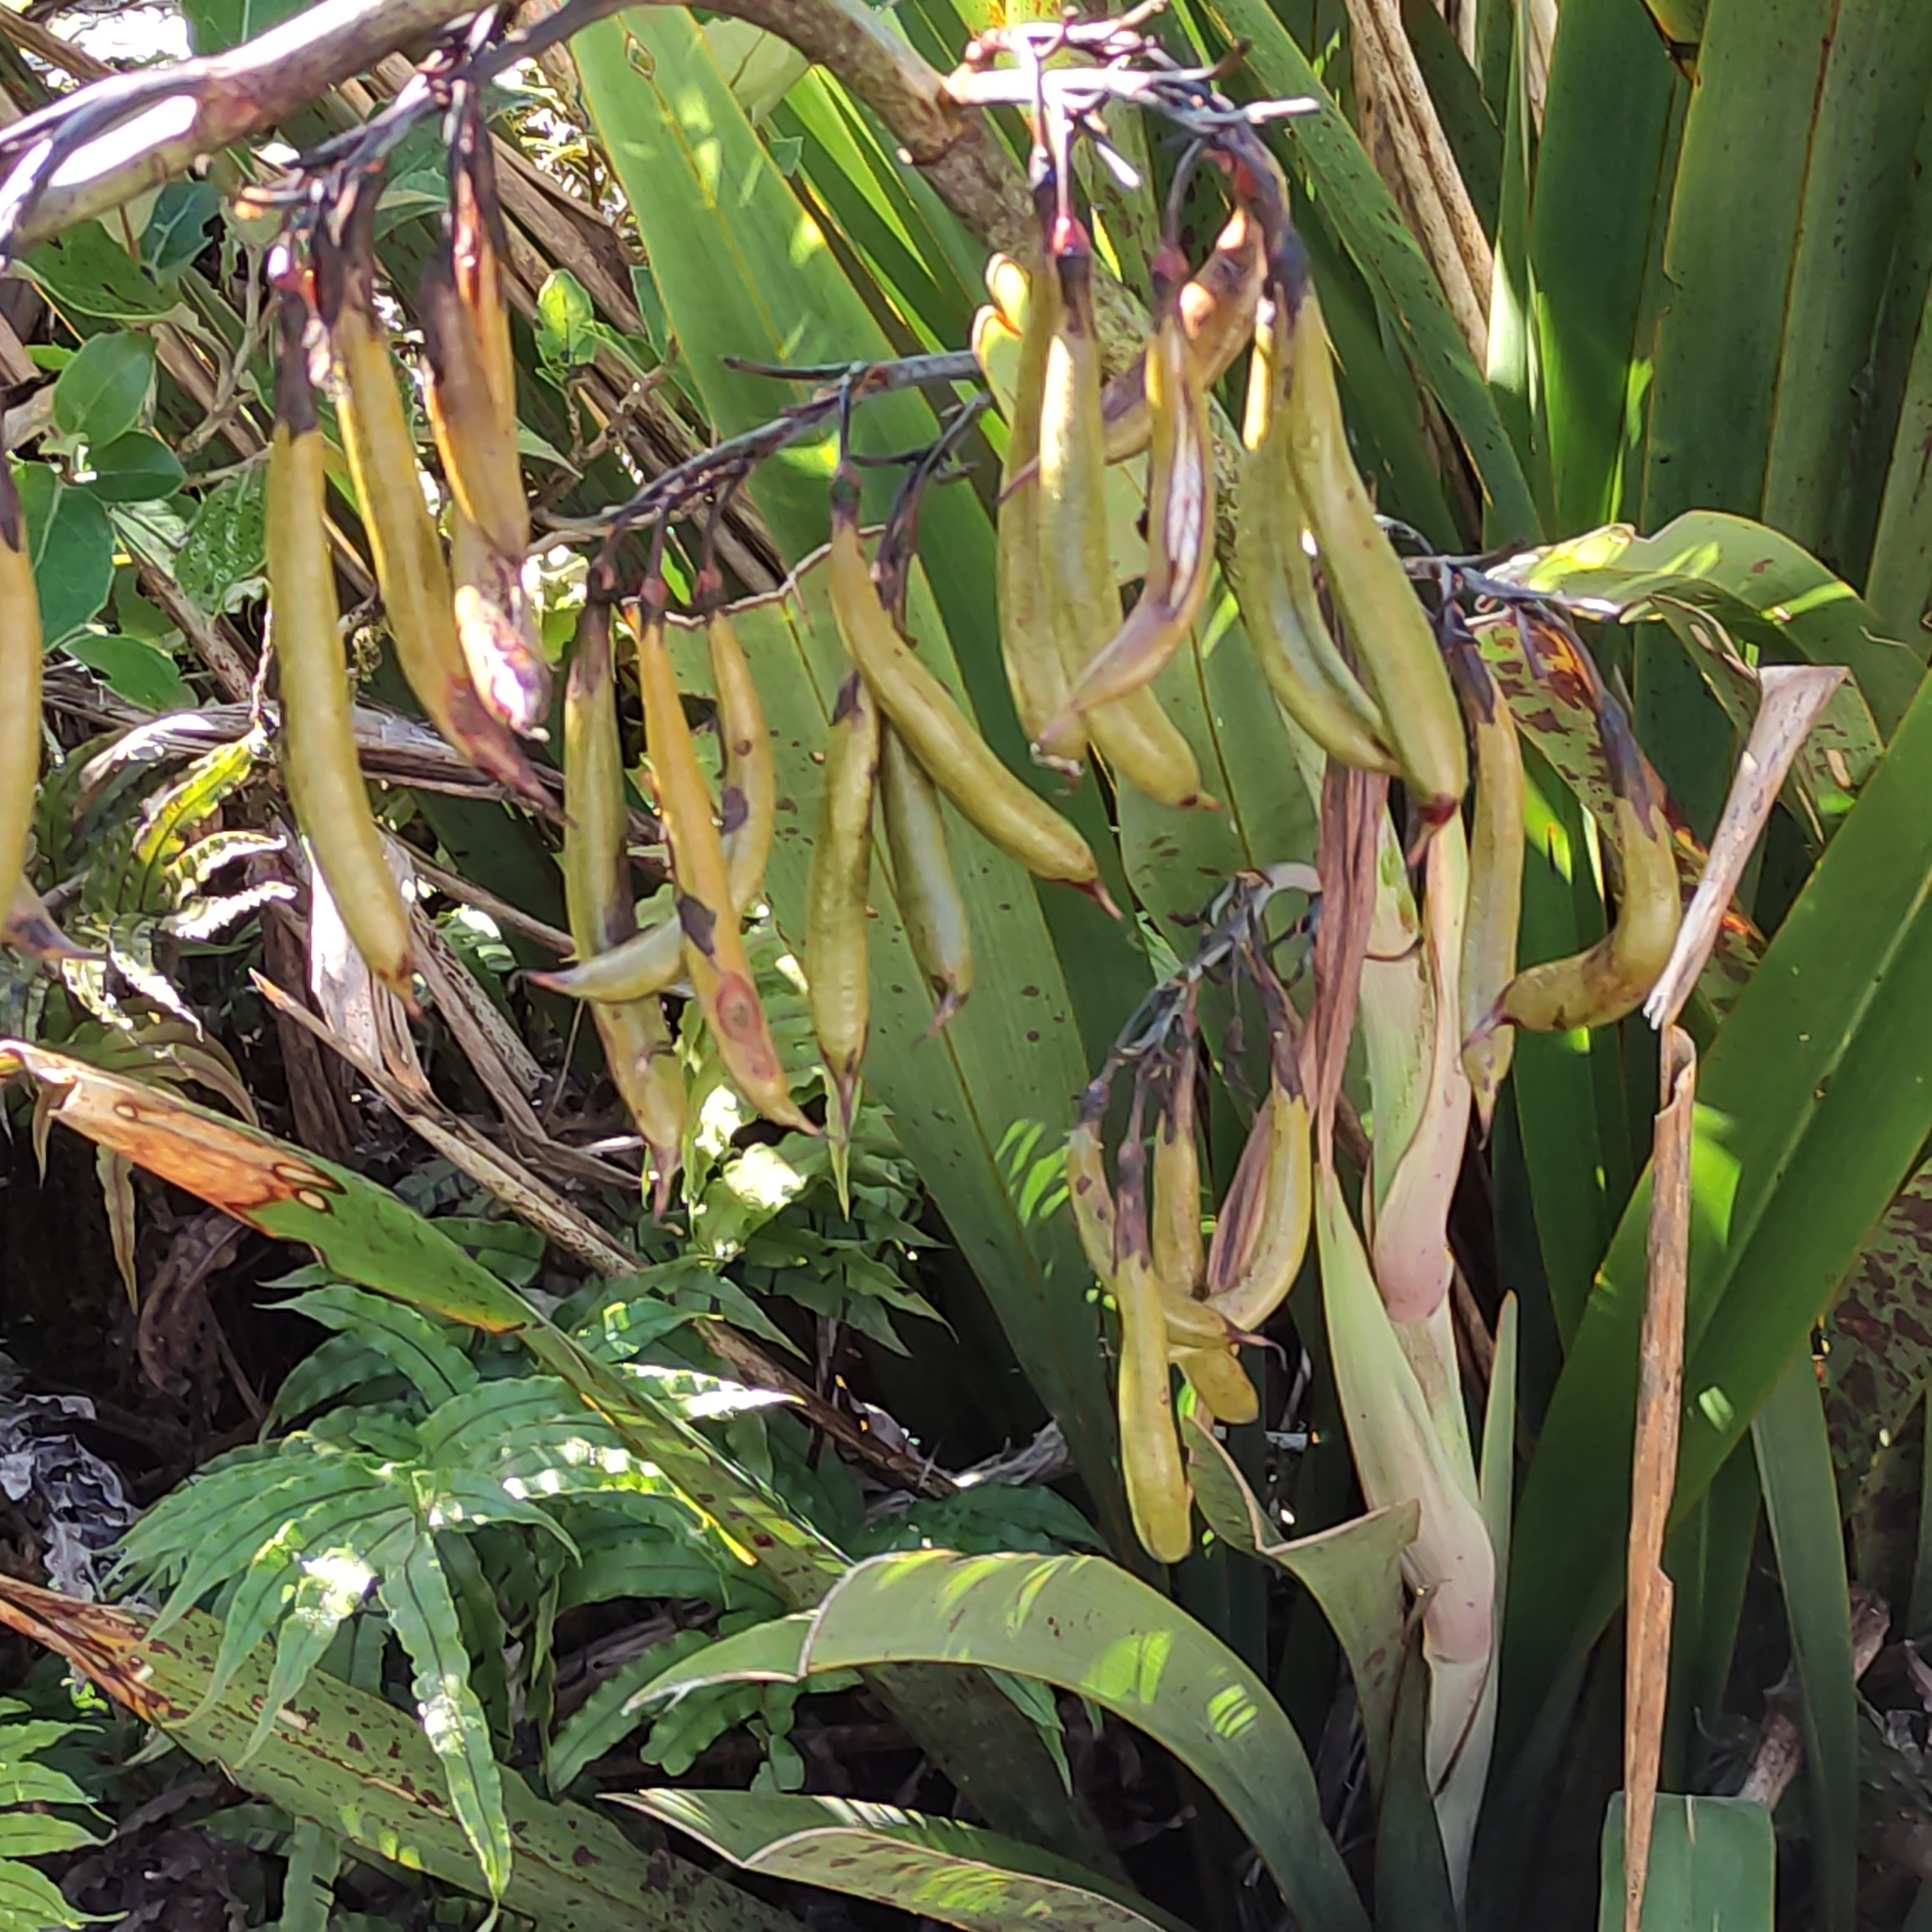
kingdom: Plantae
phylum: Tracheophyta
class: Liliopsida
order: Asparagales
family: Asphodelaceae
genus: Phormium
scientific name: Phormium colensoi
